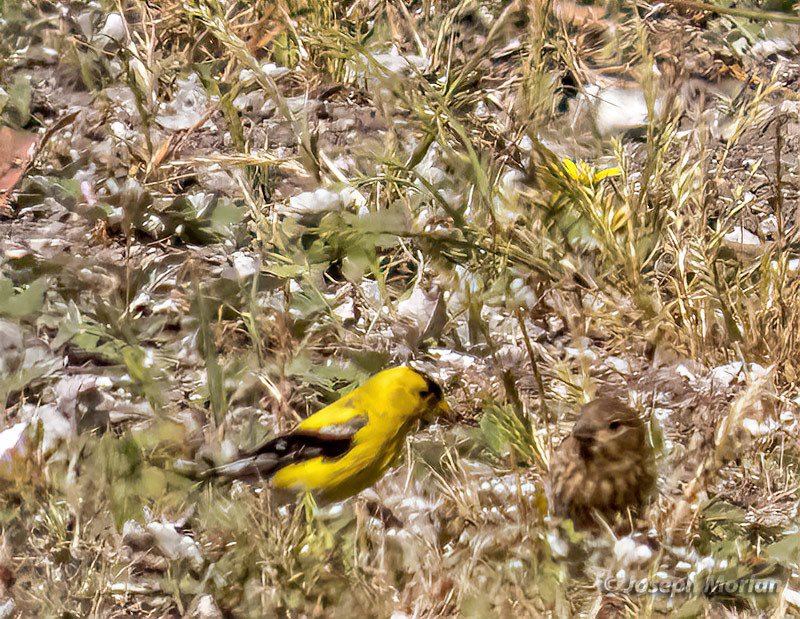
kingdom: Animalia
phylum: Chordata
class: Aves
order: Passeriformes
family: Fringillidae
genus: Spinus
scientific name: Spinus tristis
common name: American goldfinch
